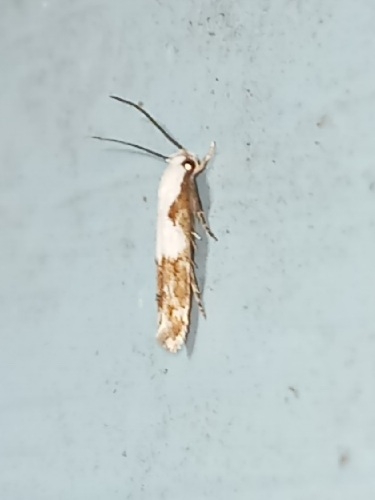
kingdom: Animalia
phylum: Arthropoda
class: Insecta
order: Lepidoptera
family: Momphidae
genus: Mompha
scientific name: Mompha circumscriptella
